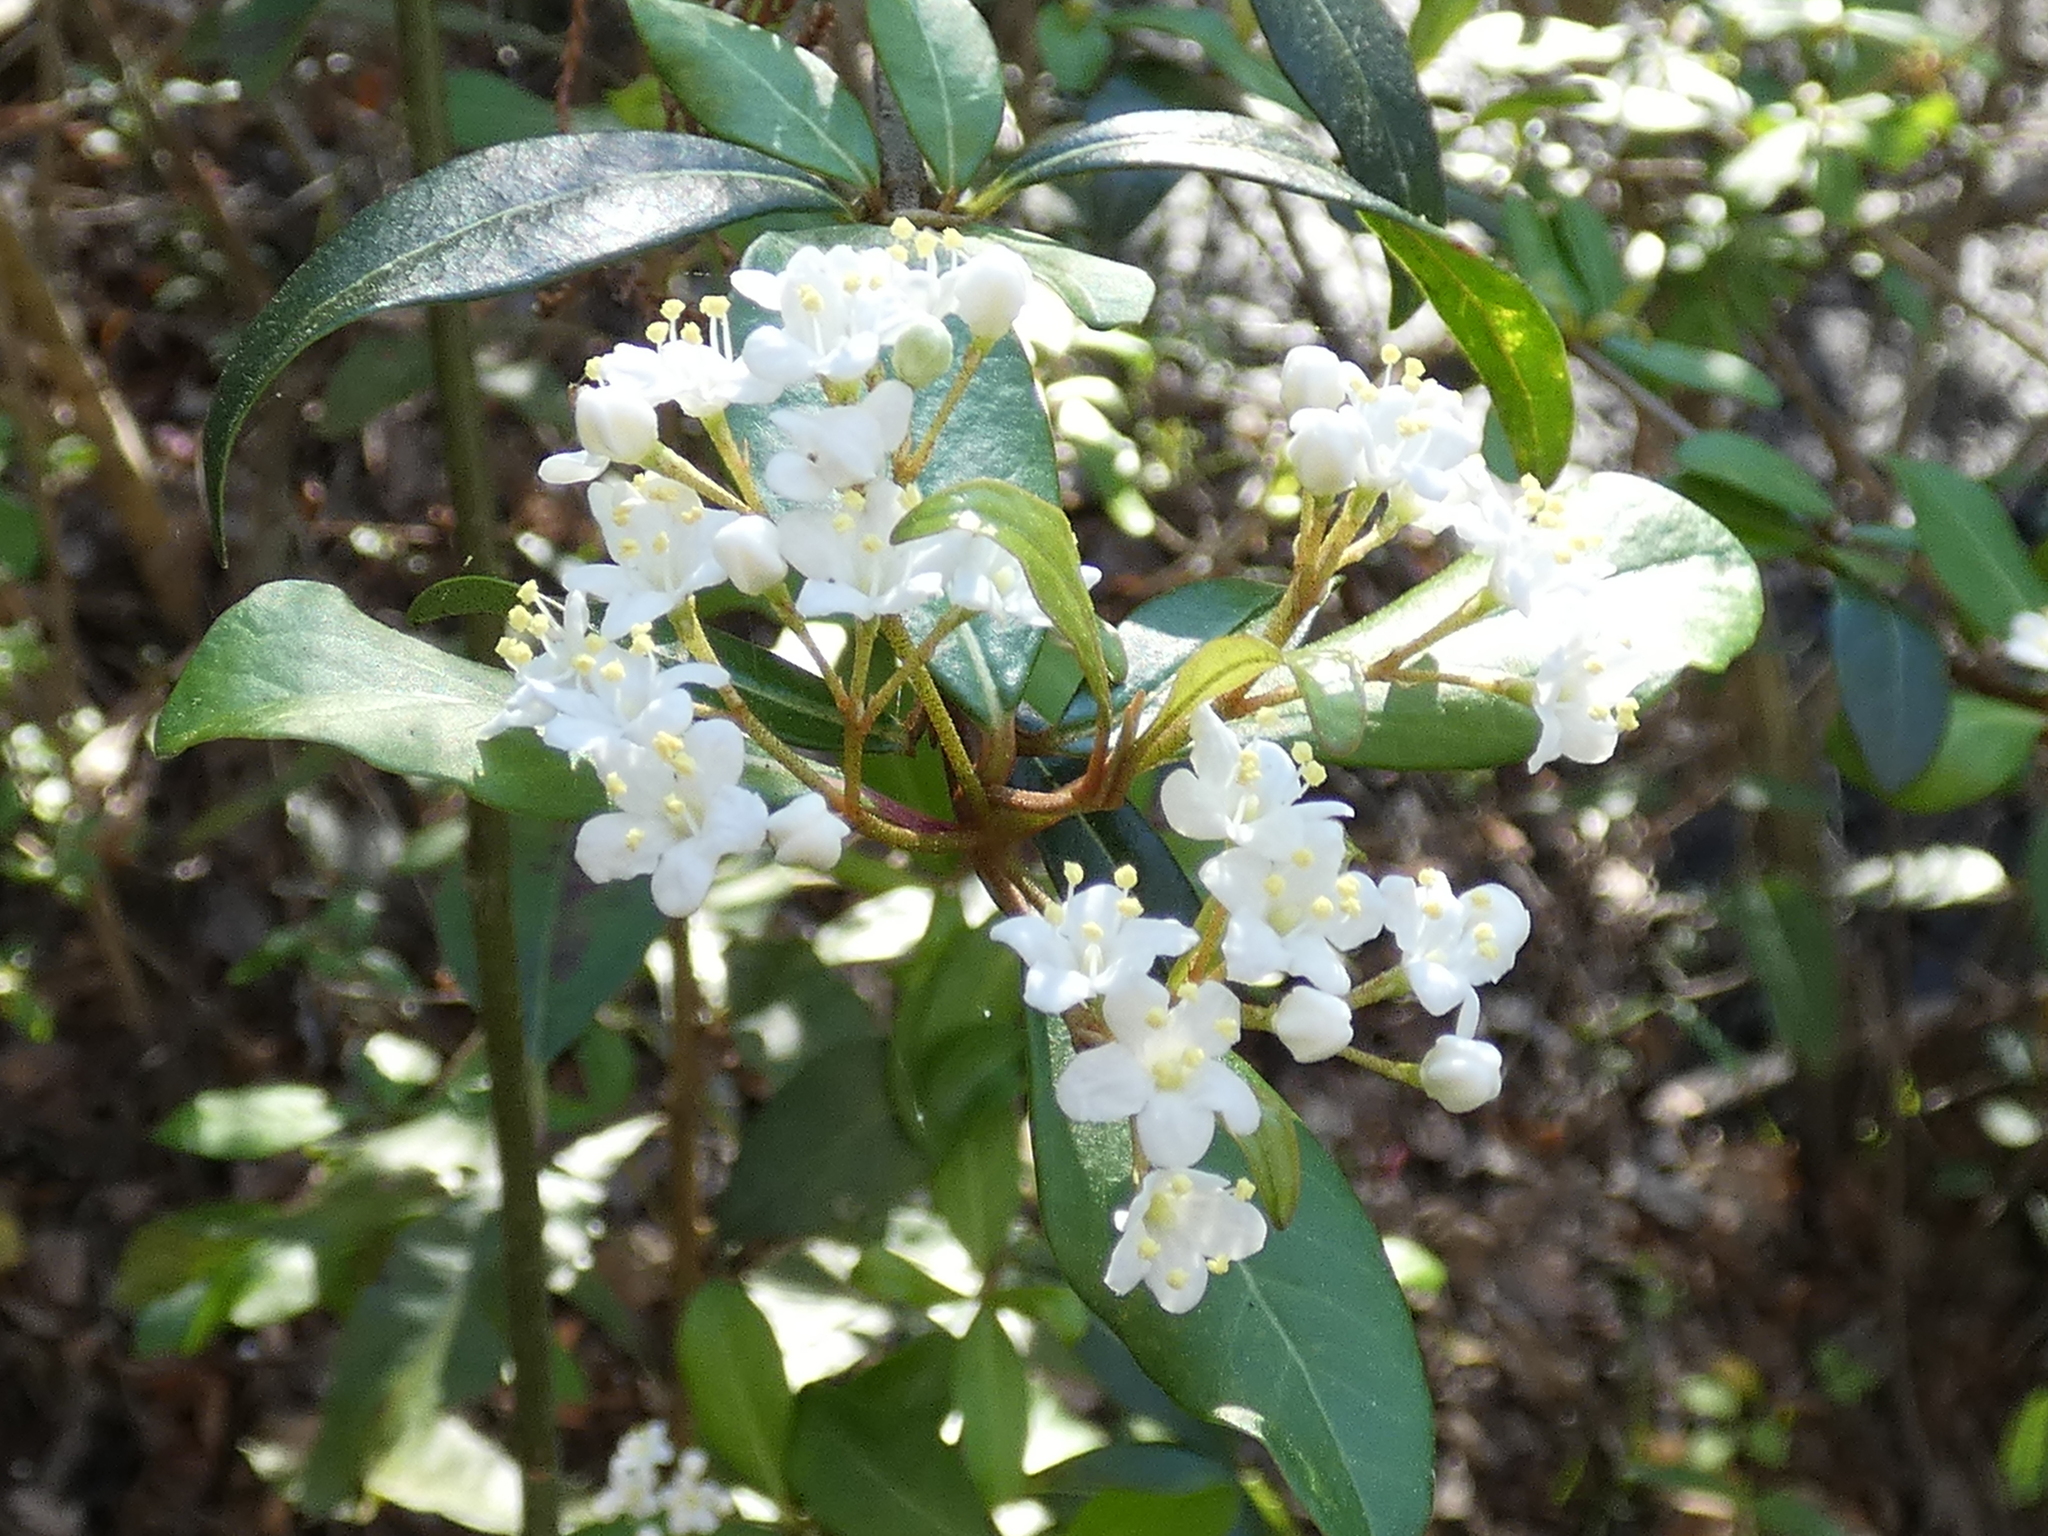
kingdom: Plantae
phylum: Tracheophyta
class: Magnoliopsida
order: Dipsacales
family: Viburnaceae
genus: Viburnum
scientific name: Viburnum obovatum
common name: Walter's viburnum
